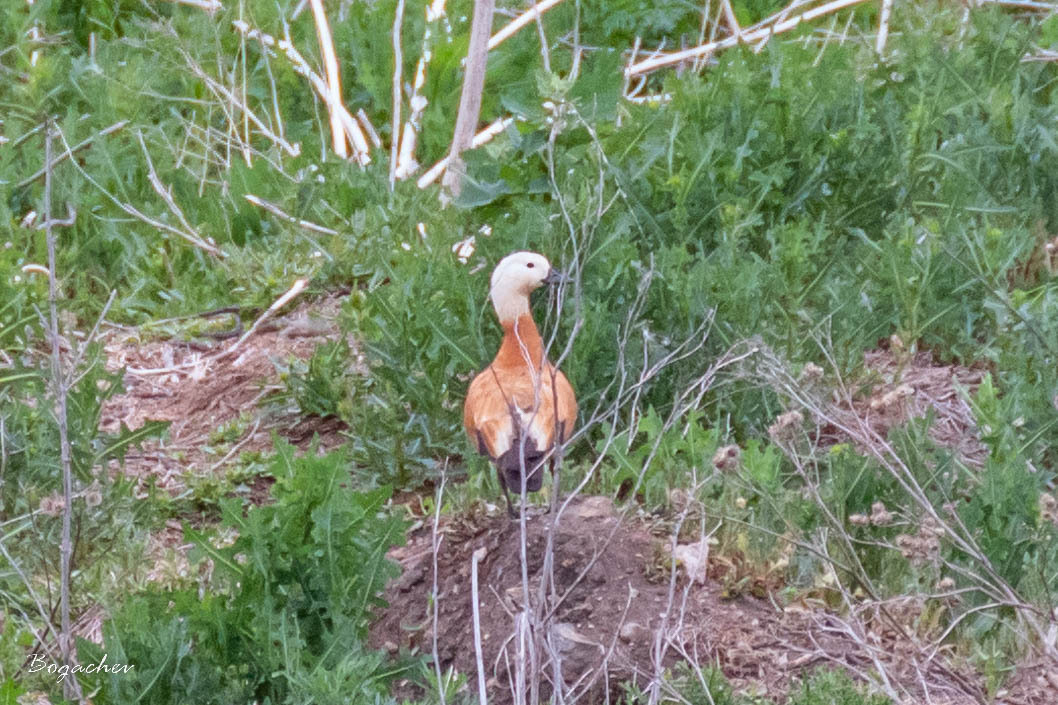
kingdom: Animalia
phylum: Chordata
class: Aves
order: Anseriformes
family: Anatidae
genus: Tadorna
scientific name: Tadorna ferruginea
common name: Ruddy shelduck
